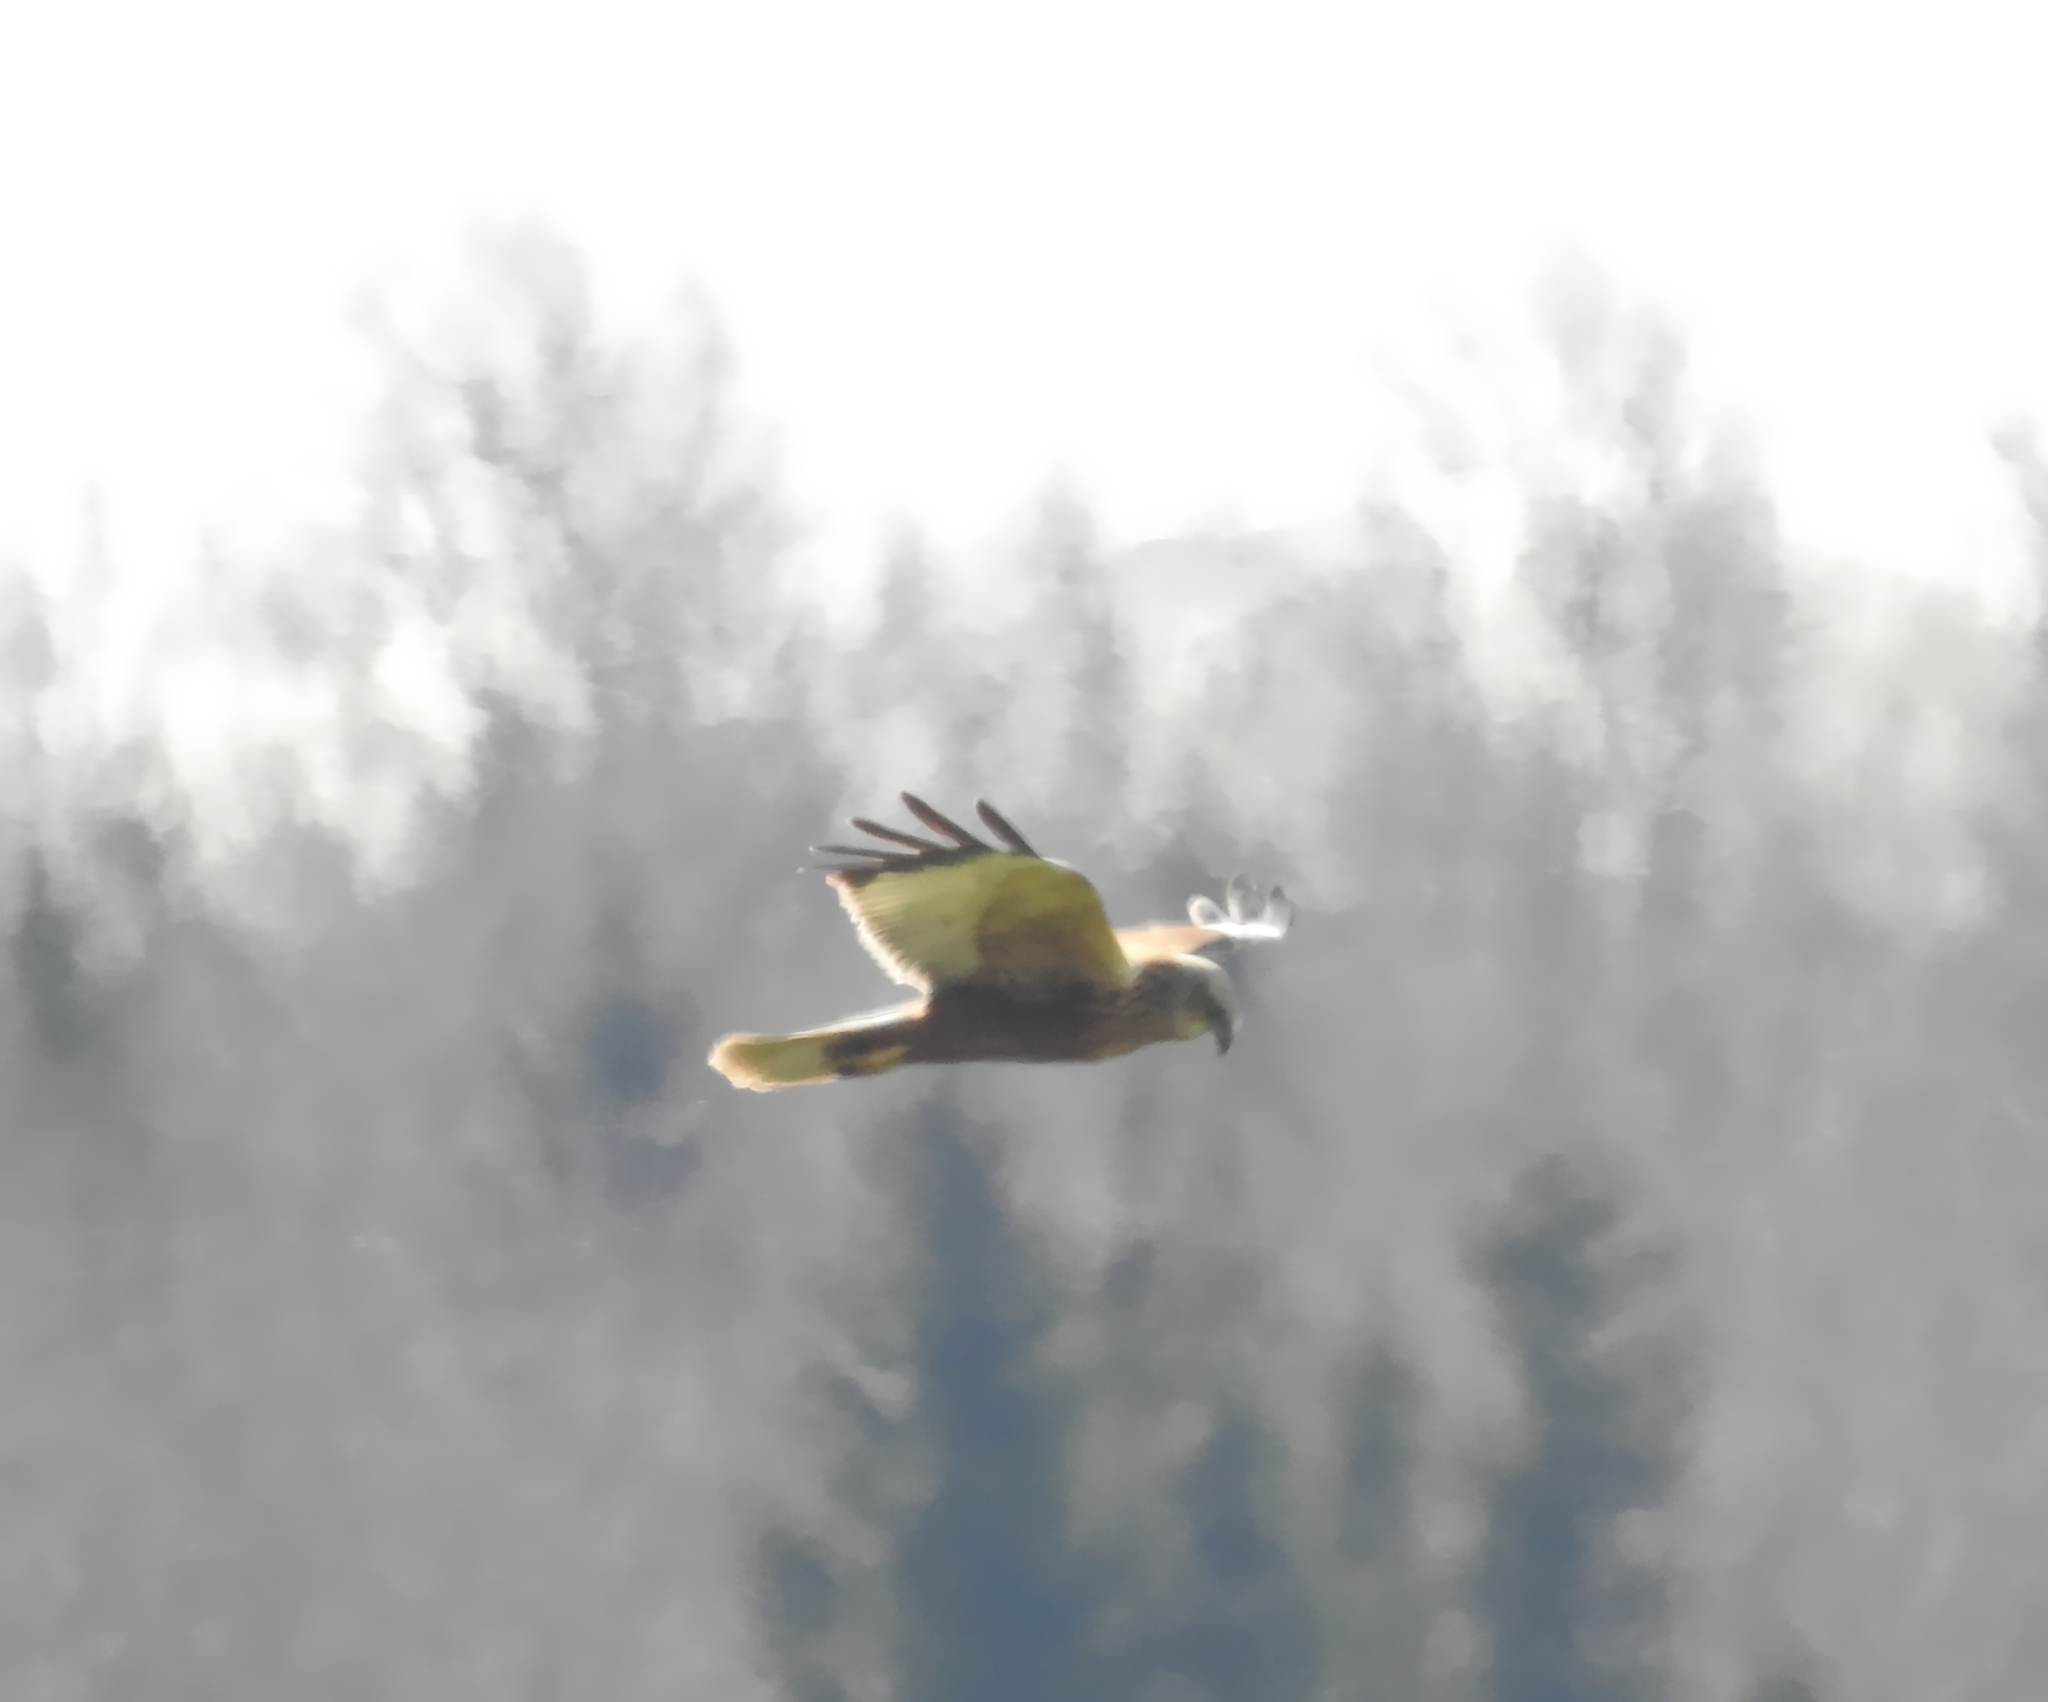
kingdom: Animalia
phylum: Chordata
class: Aves
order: Accipitriformes
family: Accipitridae
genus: Circus
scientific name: Circus aeruginosus
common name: Western marsh harrier
